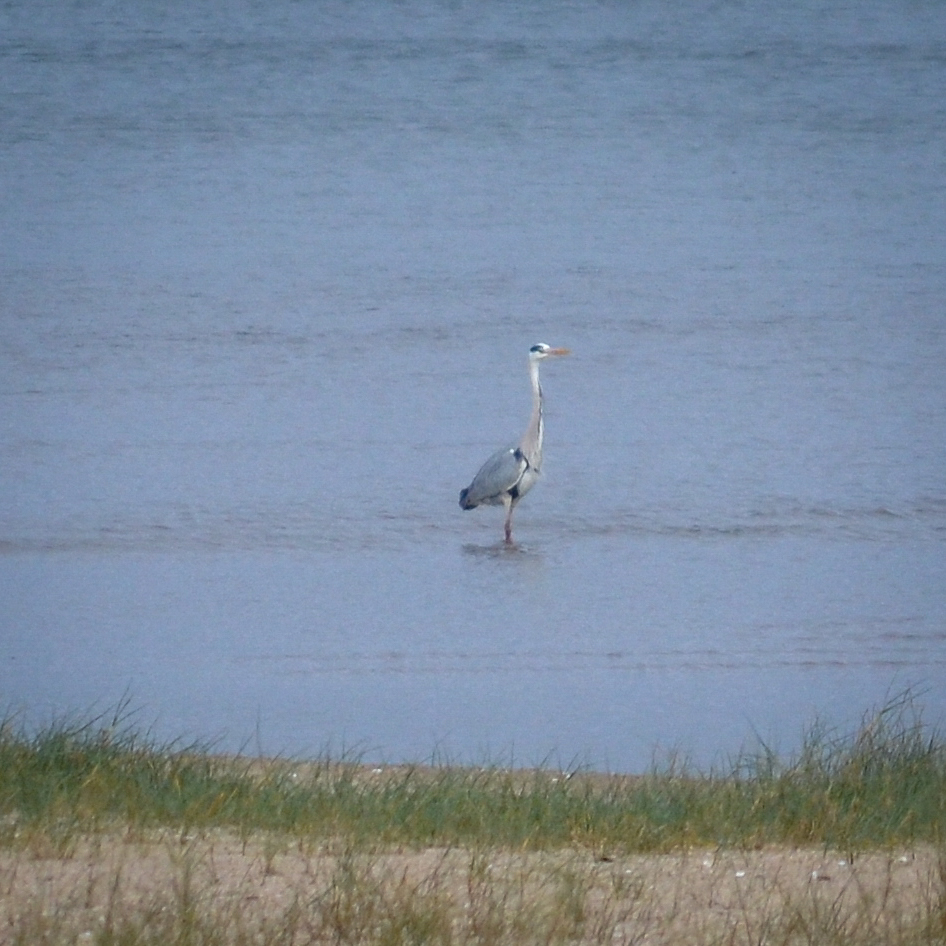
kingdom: Animalia
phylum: Chordata
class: Aves
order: Pelecaniformes
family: Ardeidae
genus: Ardea
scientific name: Ardea cinerea
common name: Grey heron
